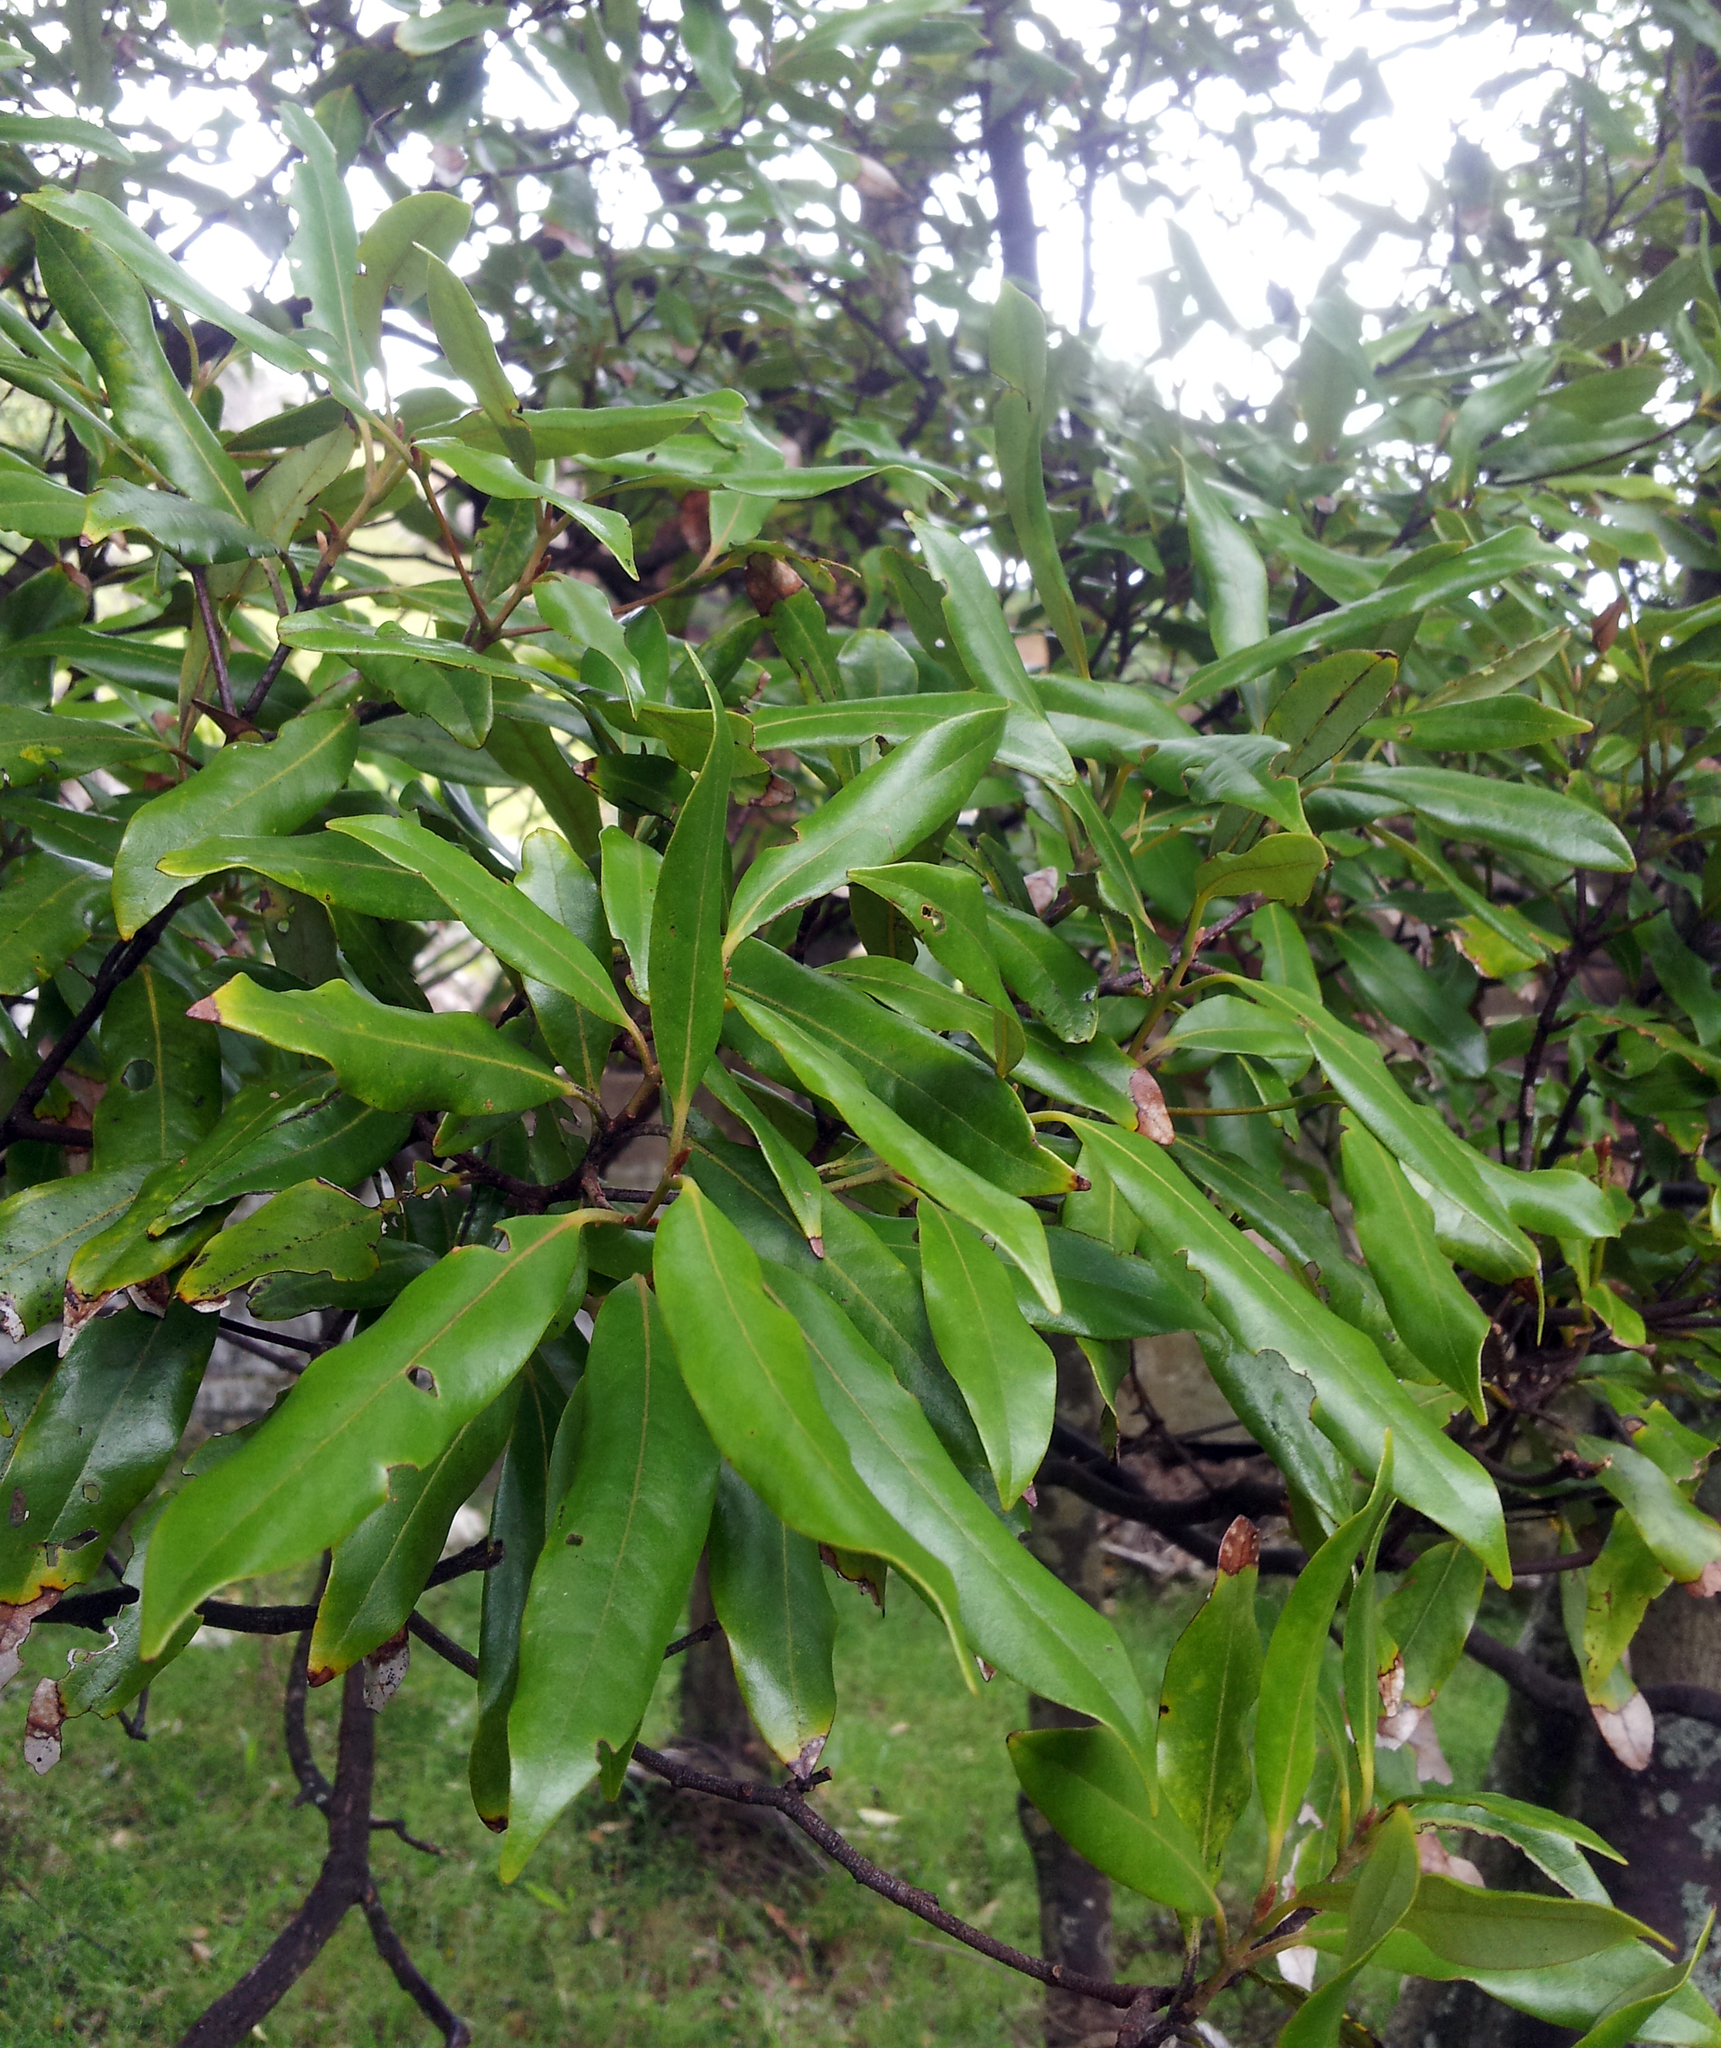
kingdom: Plantae
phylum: Tracheophyta
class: Magnoliopsida
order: Laurales
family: Lauraceae
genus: Beilschmiedia
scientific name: Beilschmiedia tawa
